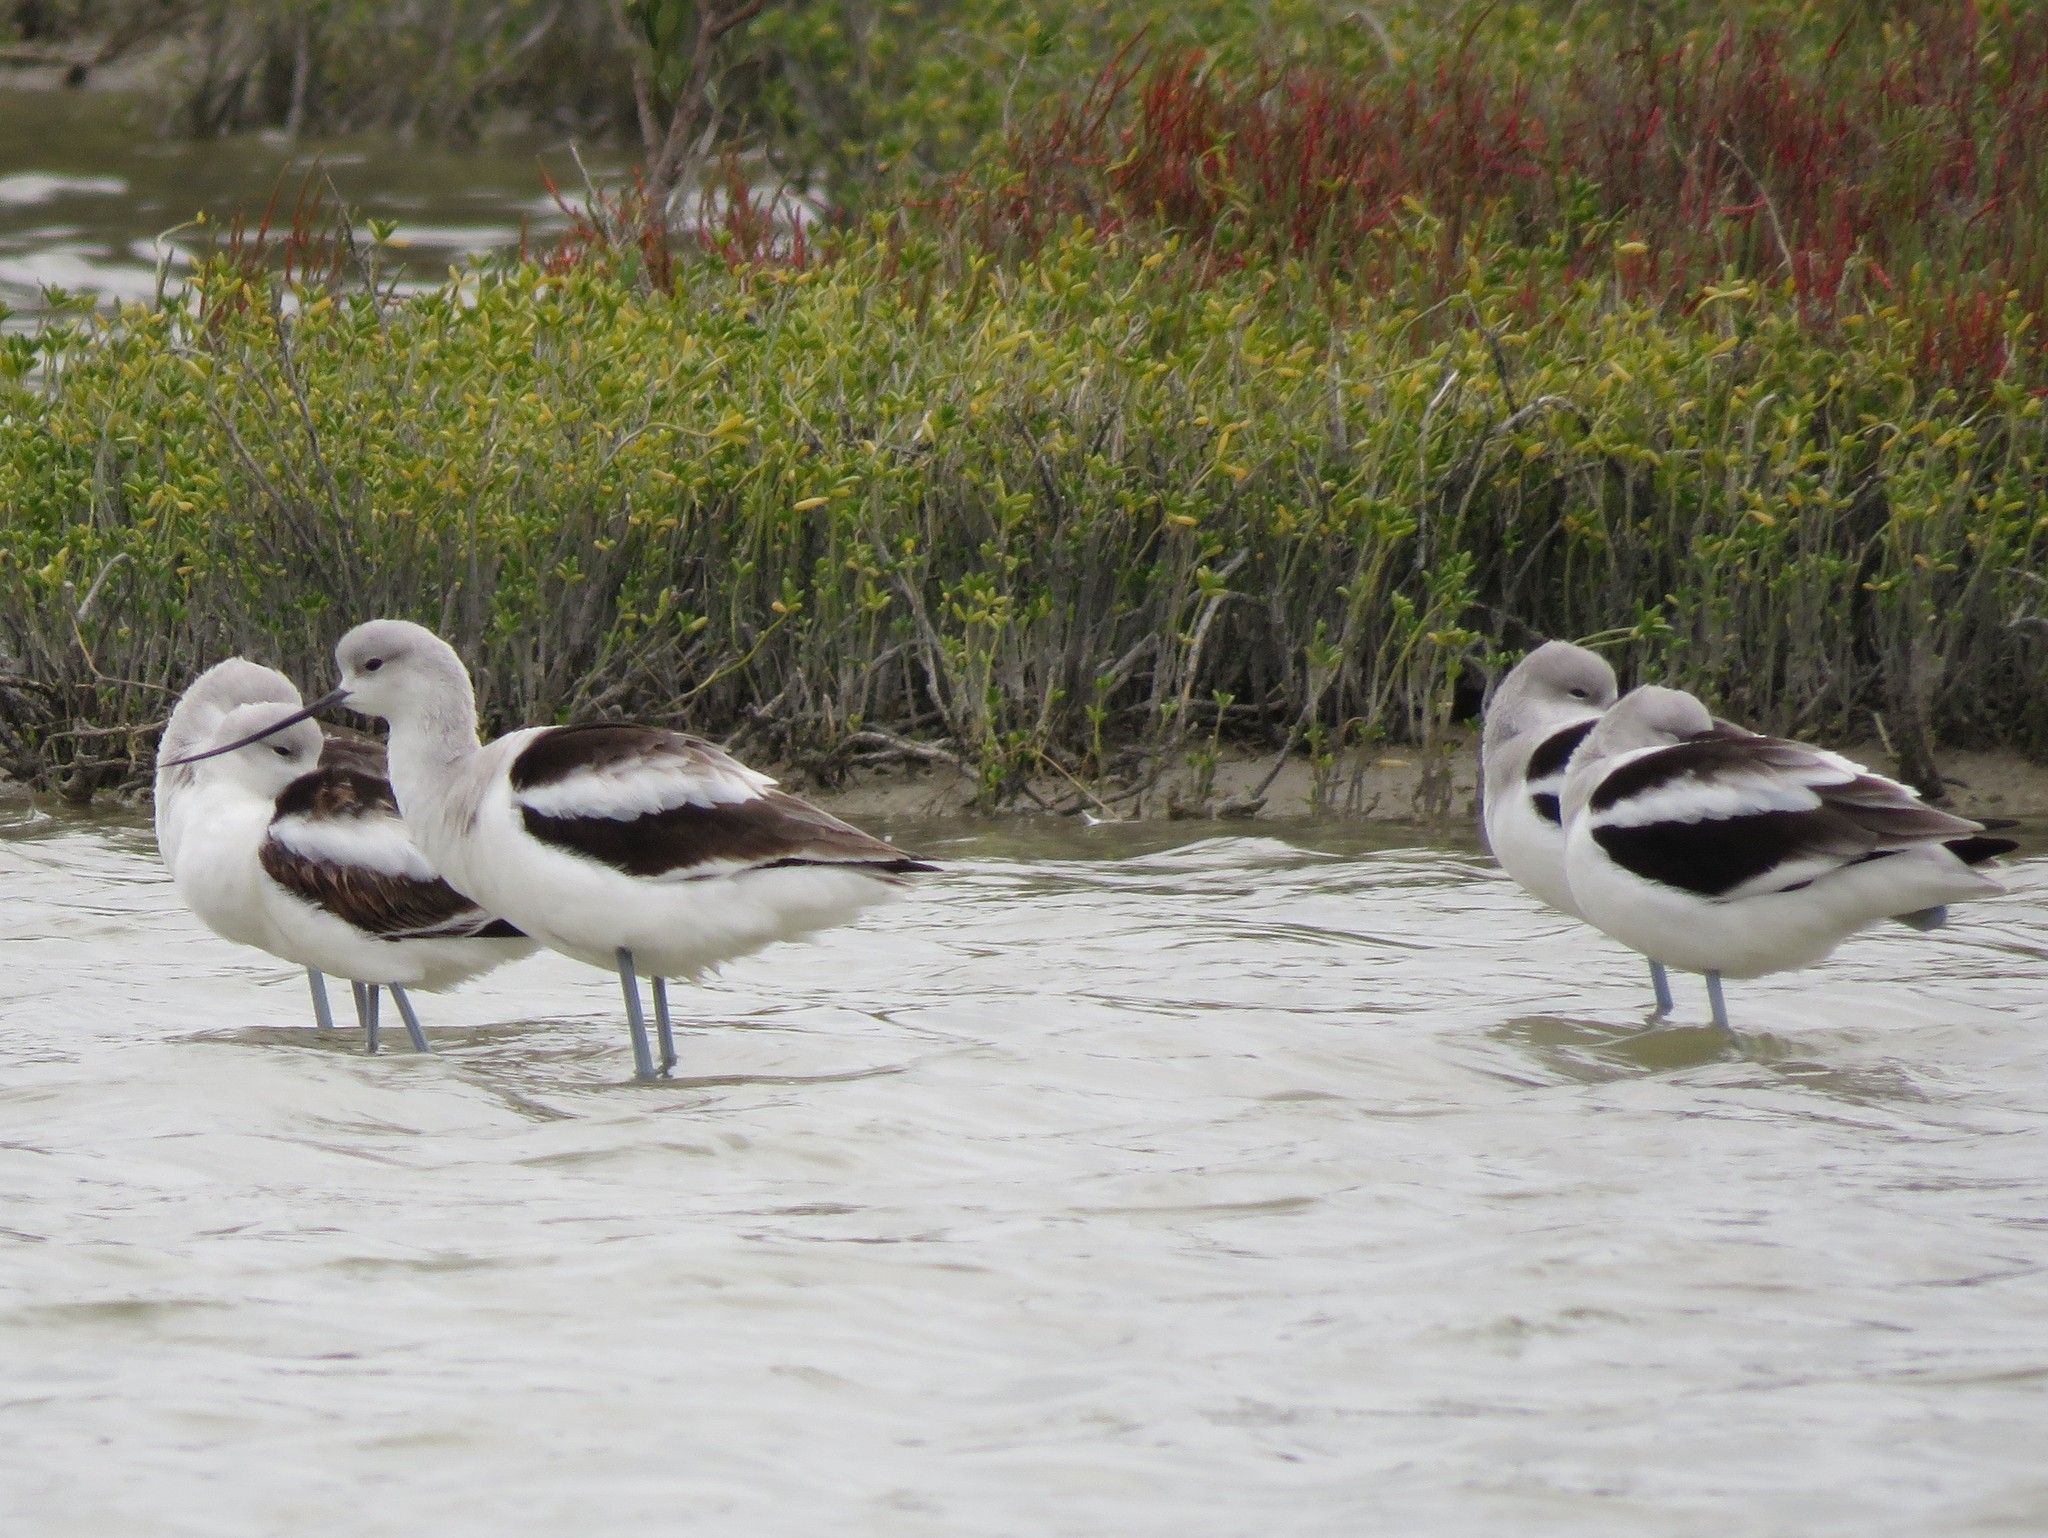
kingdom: Animalia
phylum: Chordata
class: Aves
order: Charadriiformes
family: Recurvirostridae
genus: Recurvirostra
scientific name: Recurvirostra americana
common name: American avocet
